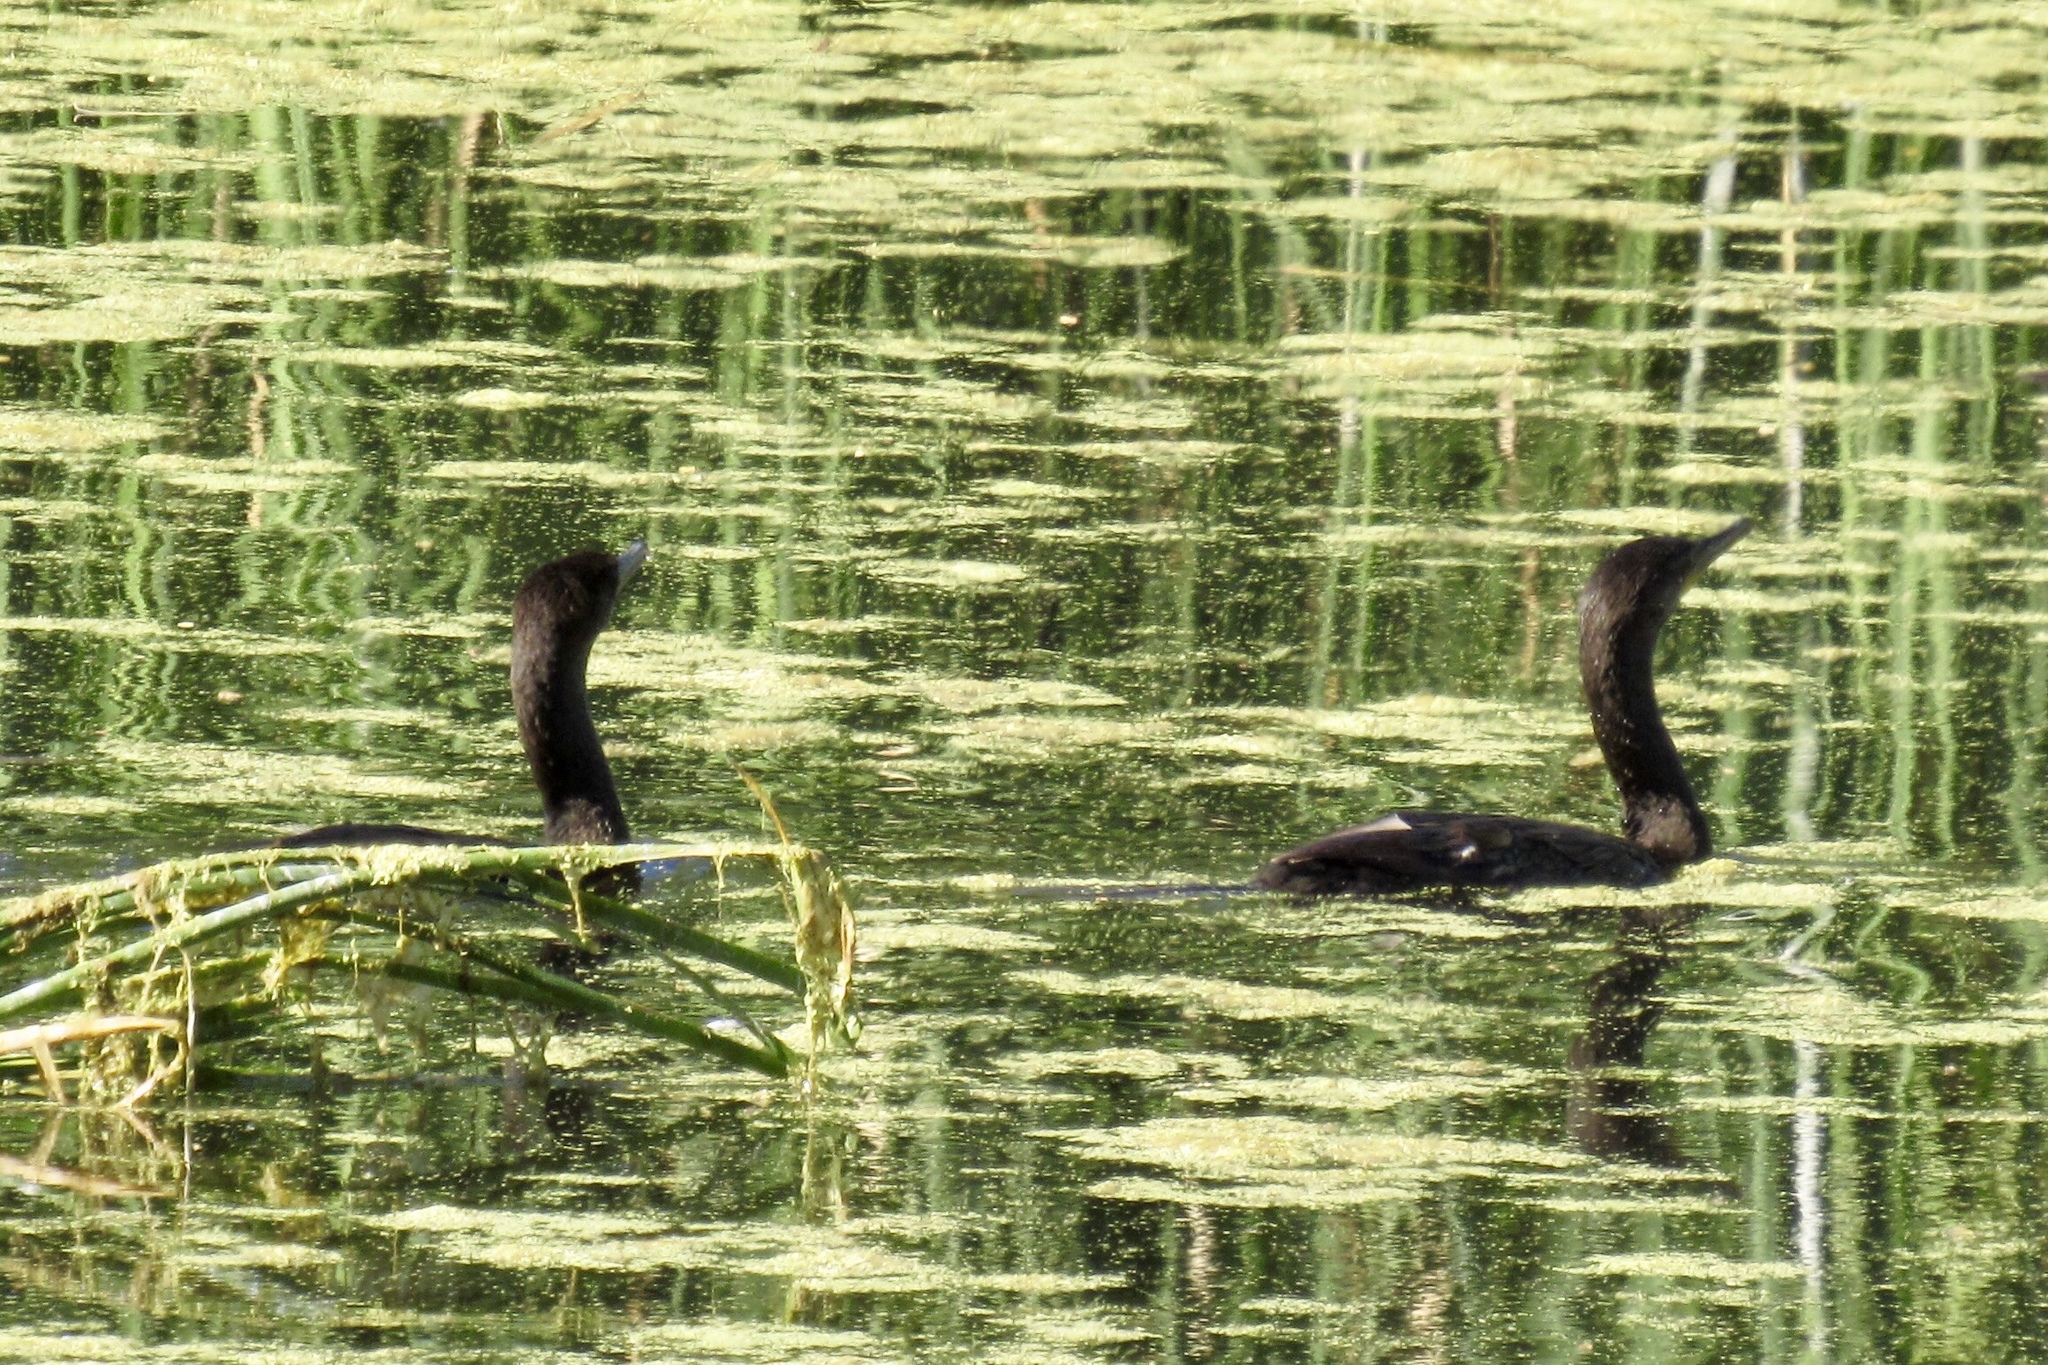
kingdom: Animalia
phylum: Chordata
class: Aves
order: Suliformes
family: Phalacrocoracidae
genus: Phalacrocorax
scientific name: Phalacrocorax brasilianus
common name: Neotropic cormorant
